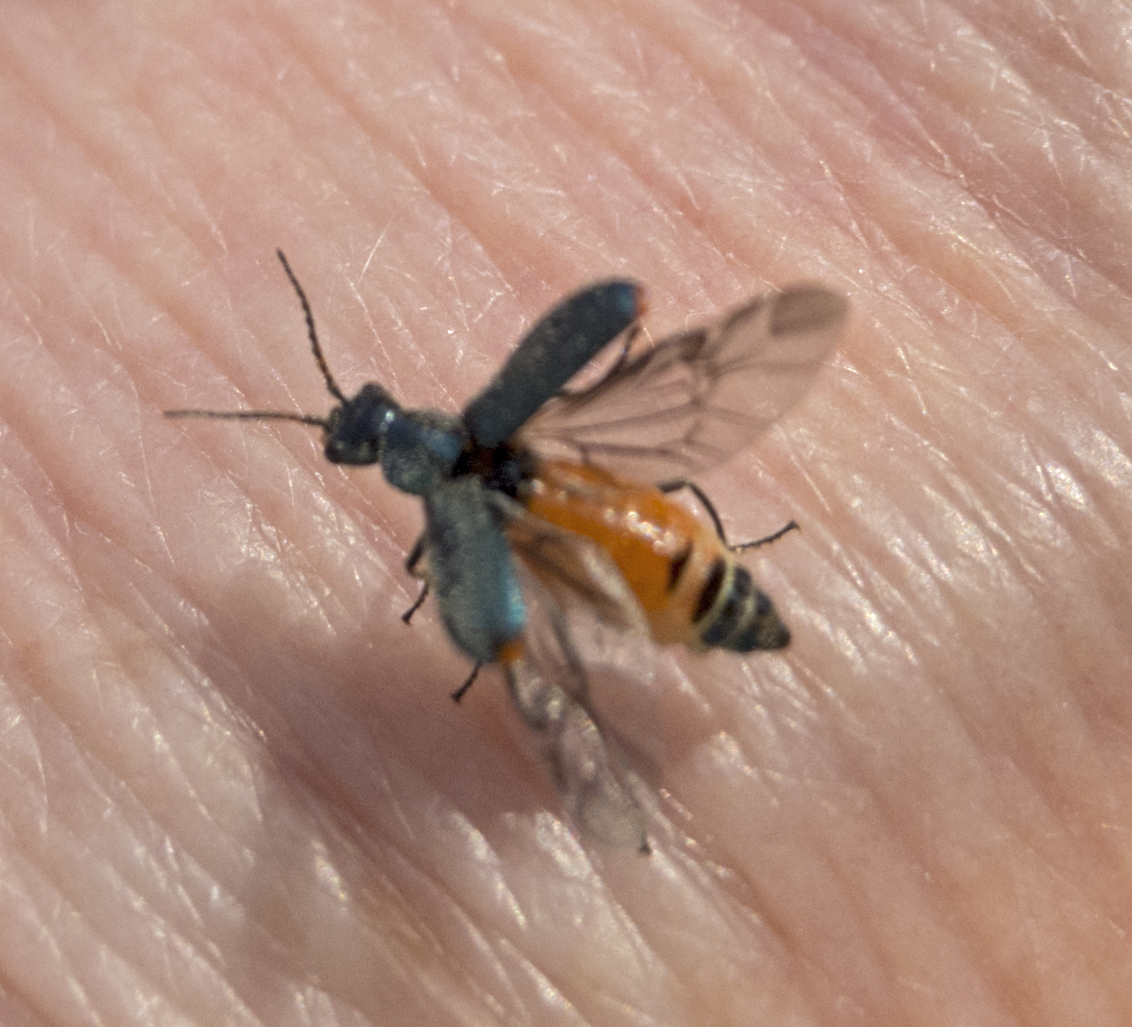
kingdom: Animalia
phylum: Arthropoda
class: Insecta
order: Coleoptera
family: Malachiidae
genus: Cordylepherus
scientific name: Cordylepherus viridis
